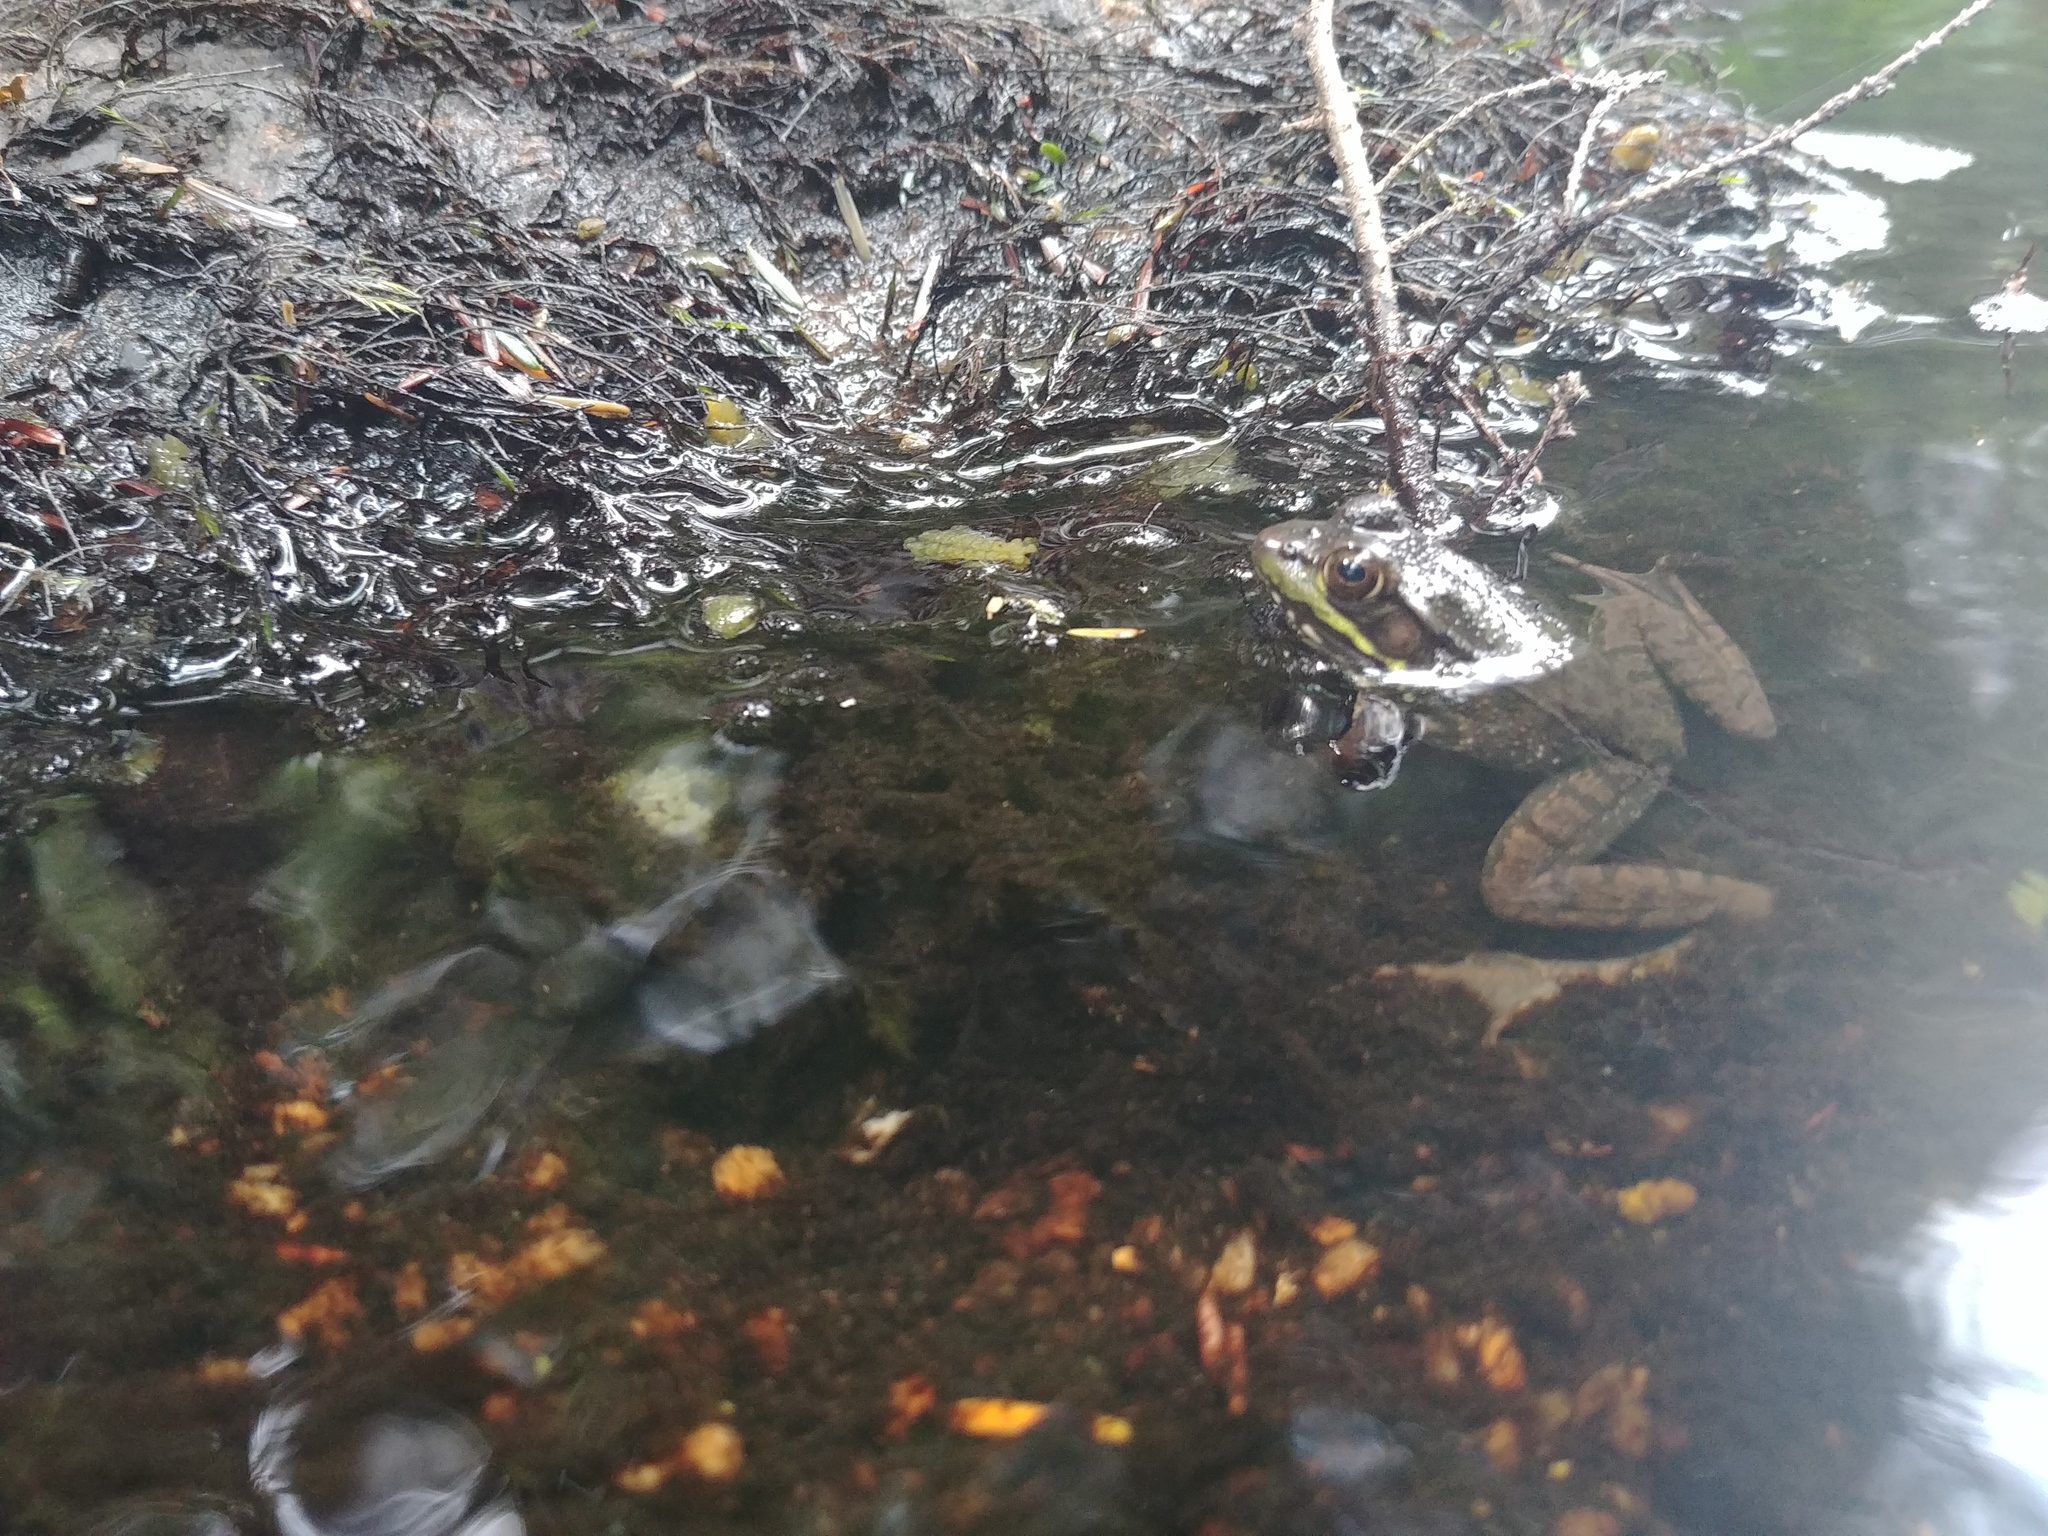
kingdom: Animalia
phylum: Chordata
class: Amphibia
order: Anura
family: Ranidae
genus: Lithobates
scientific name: Lithobates clamitans
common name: Green frog
